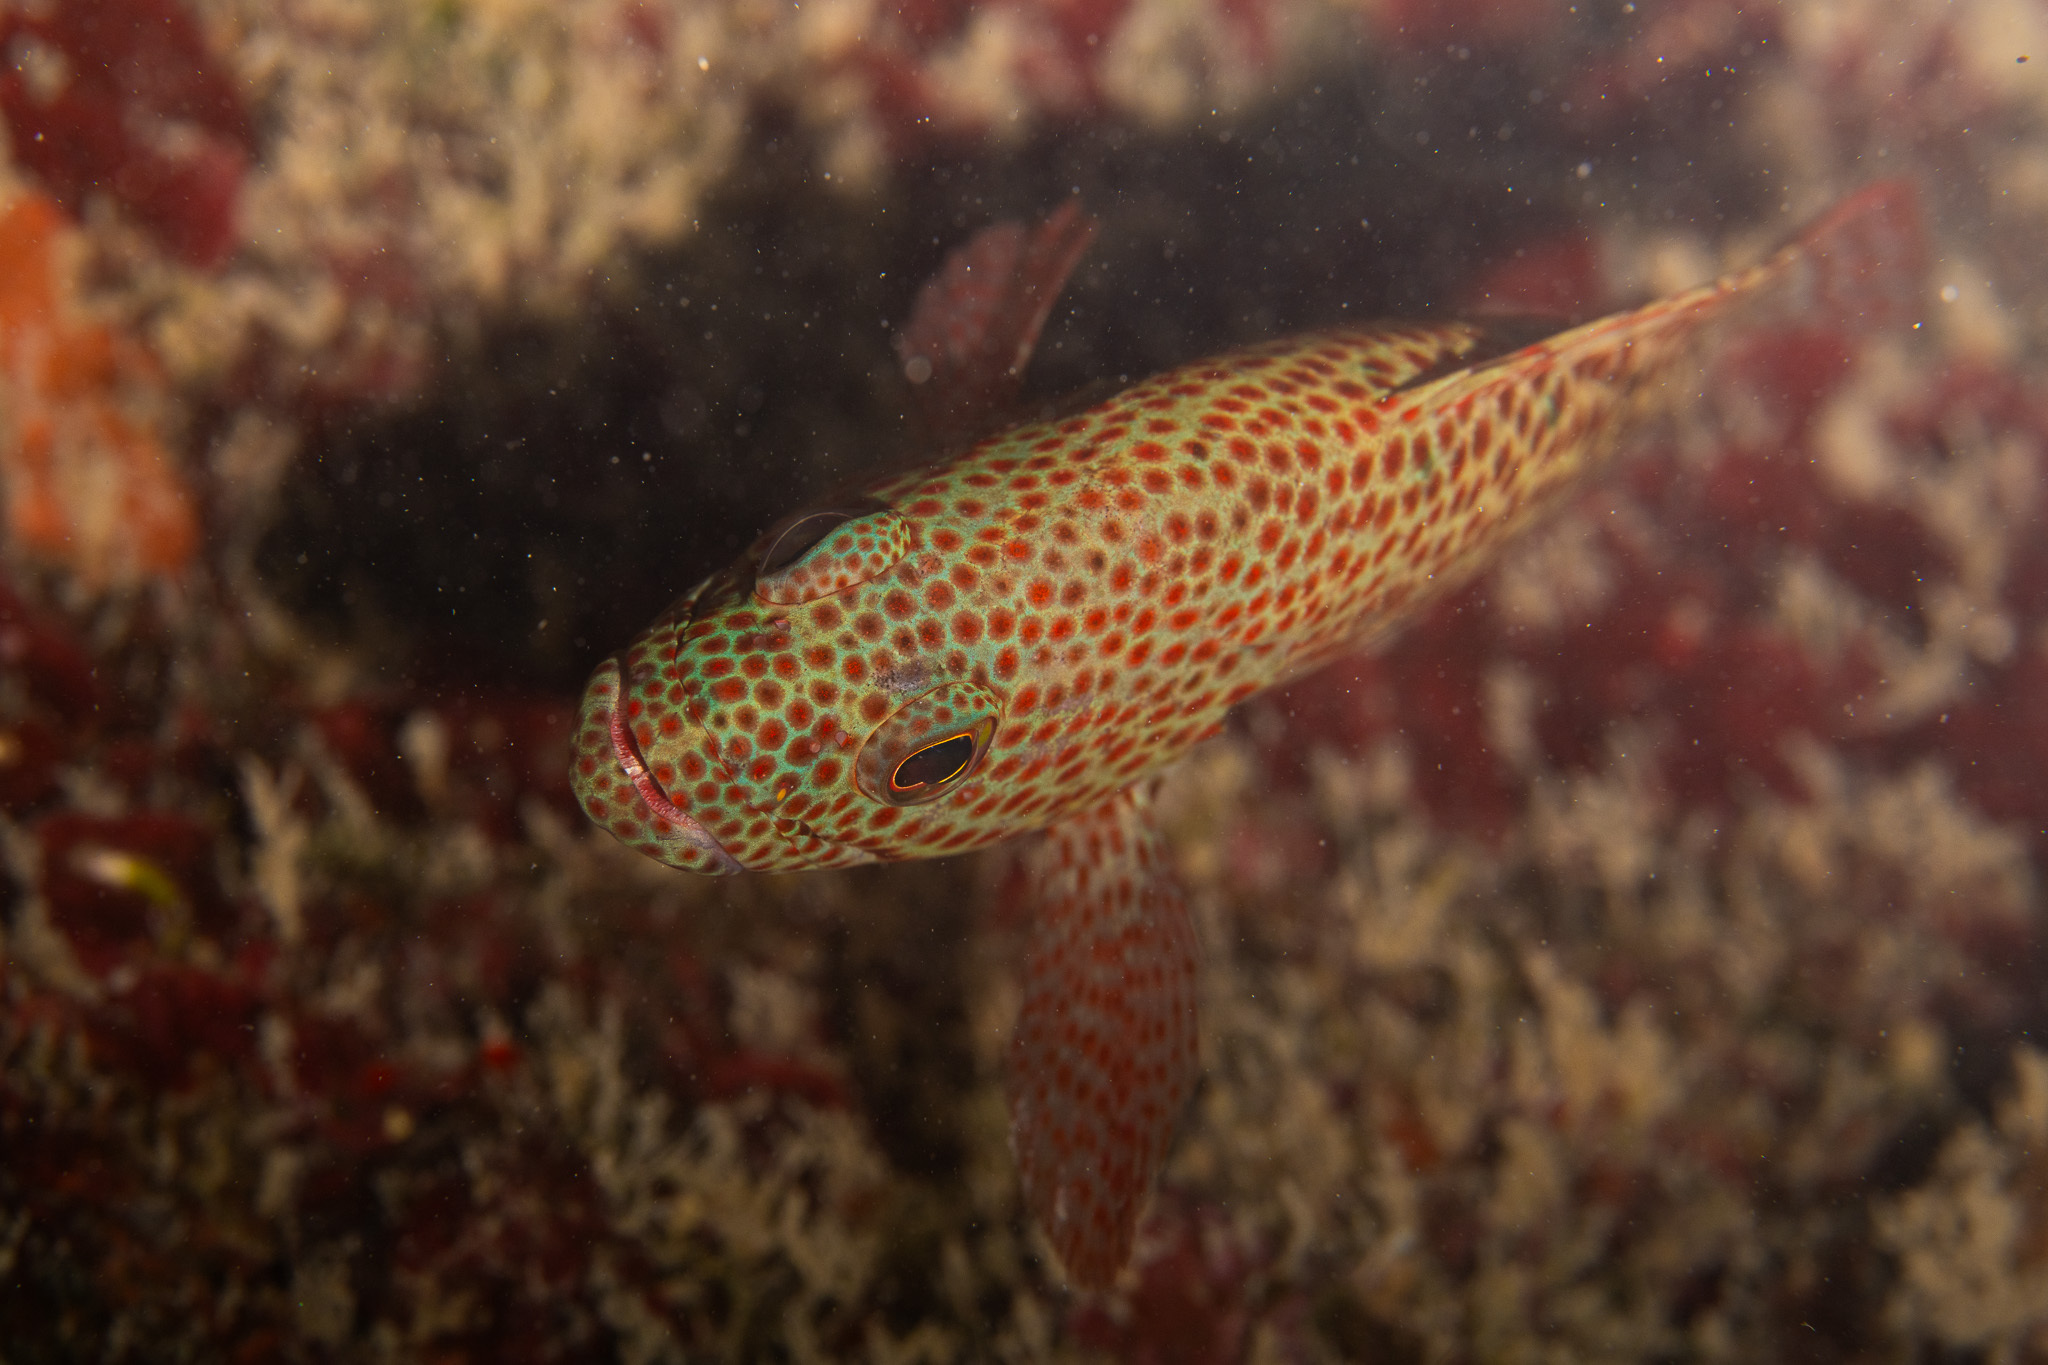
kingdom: Animalia
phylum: Chordata
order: Perciformes
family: Serranidae
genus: Cephalopholis
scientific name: Cephalopholis cruentata
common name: Graysby
